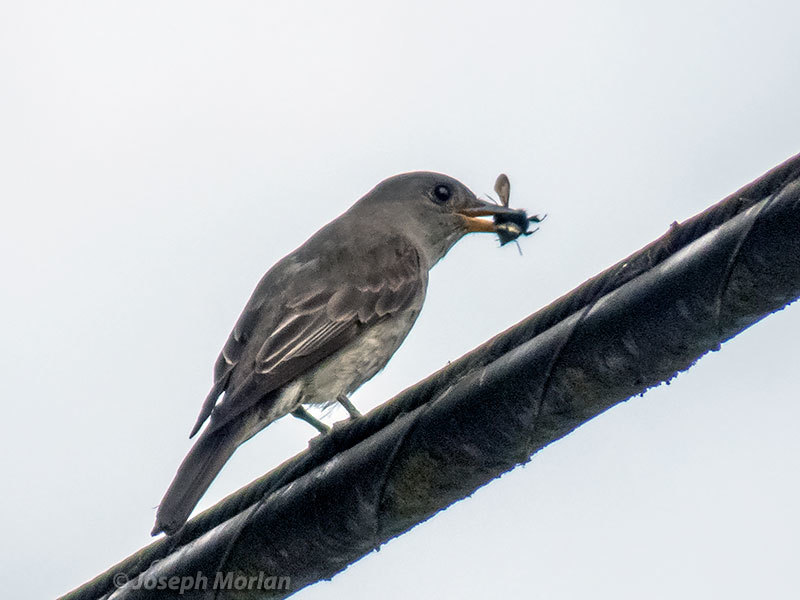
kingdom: Animalia
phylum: Chordata
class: Aves
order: Passeriformes
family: Tyrannidae
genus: Contopus
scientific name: Contopus cooperi
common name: Olive-sided flycatcher
